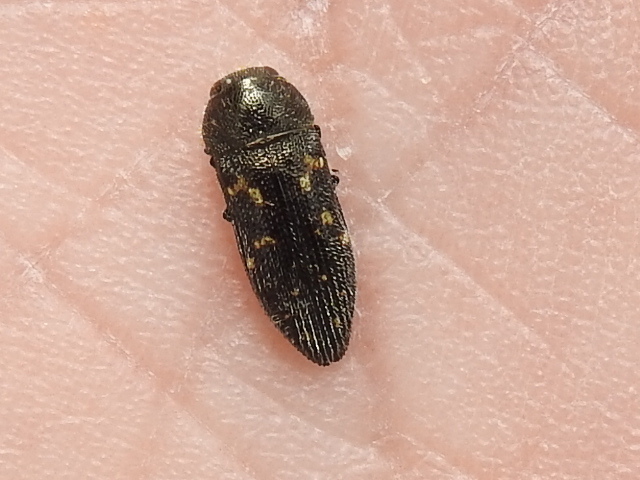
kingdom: Animalia
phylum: Arthropoda
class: Insecta
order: Coleoptera
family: Buprestidae
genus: Acmaeodera
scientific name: Acmaeodera tubulus
